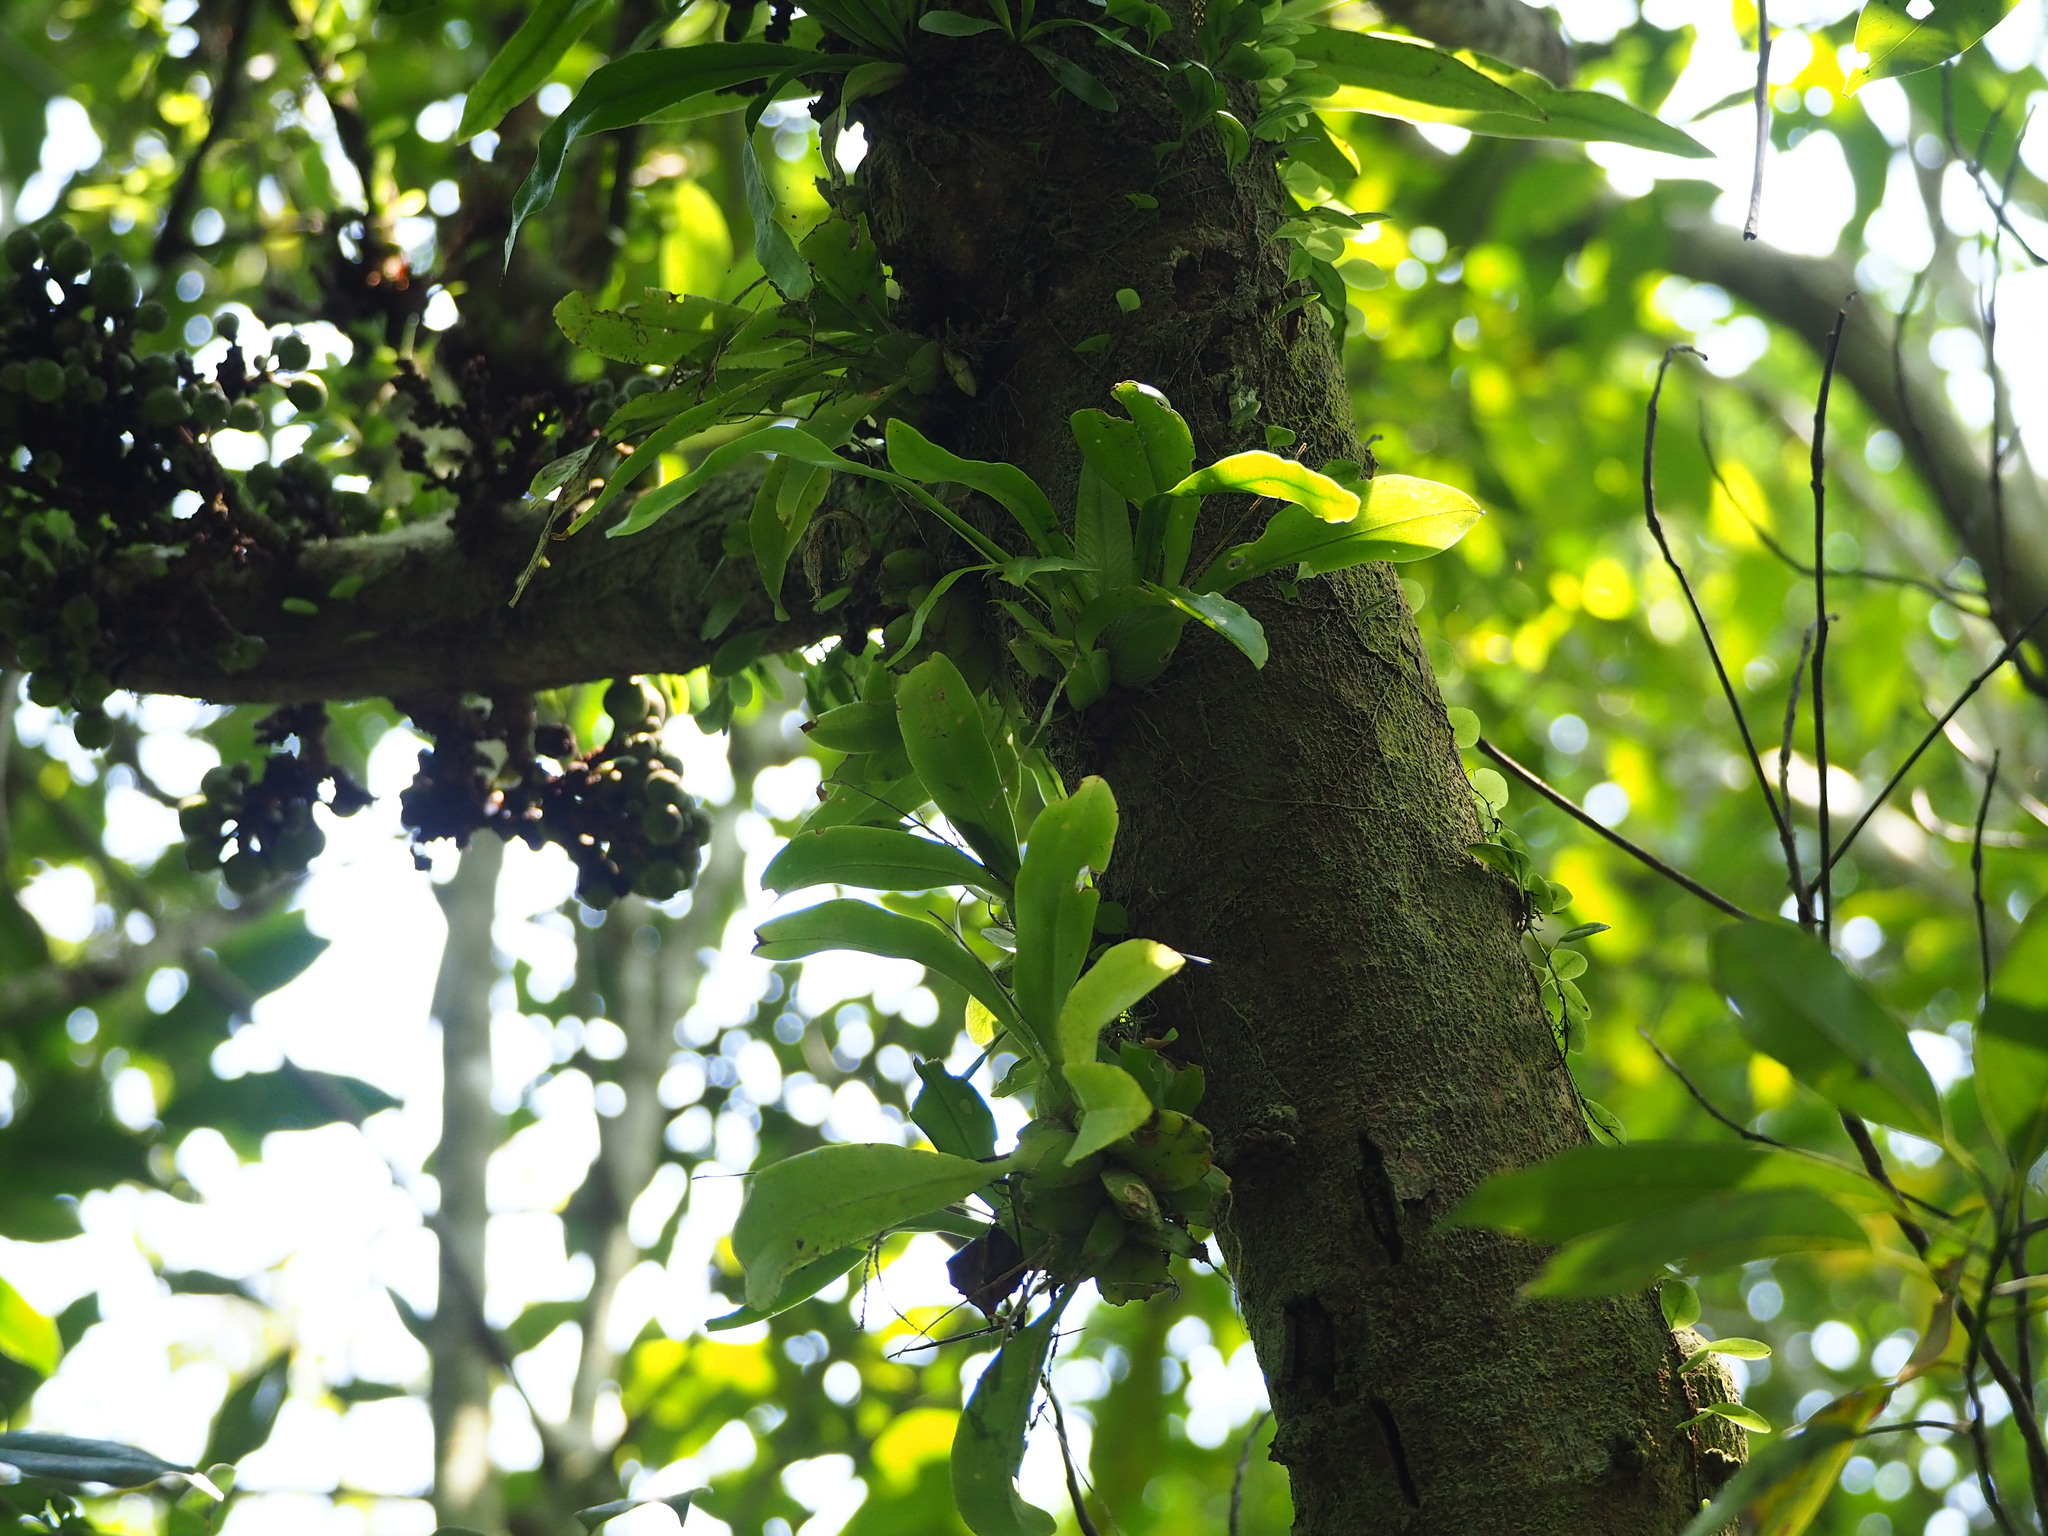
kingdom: Plantae
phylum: Tracheophyta
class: Liliopsida
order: Asparagales
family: Orchidaceae
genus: Liparis
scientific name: Liparis elliptica
